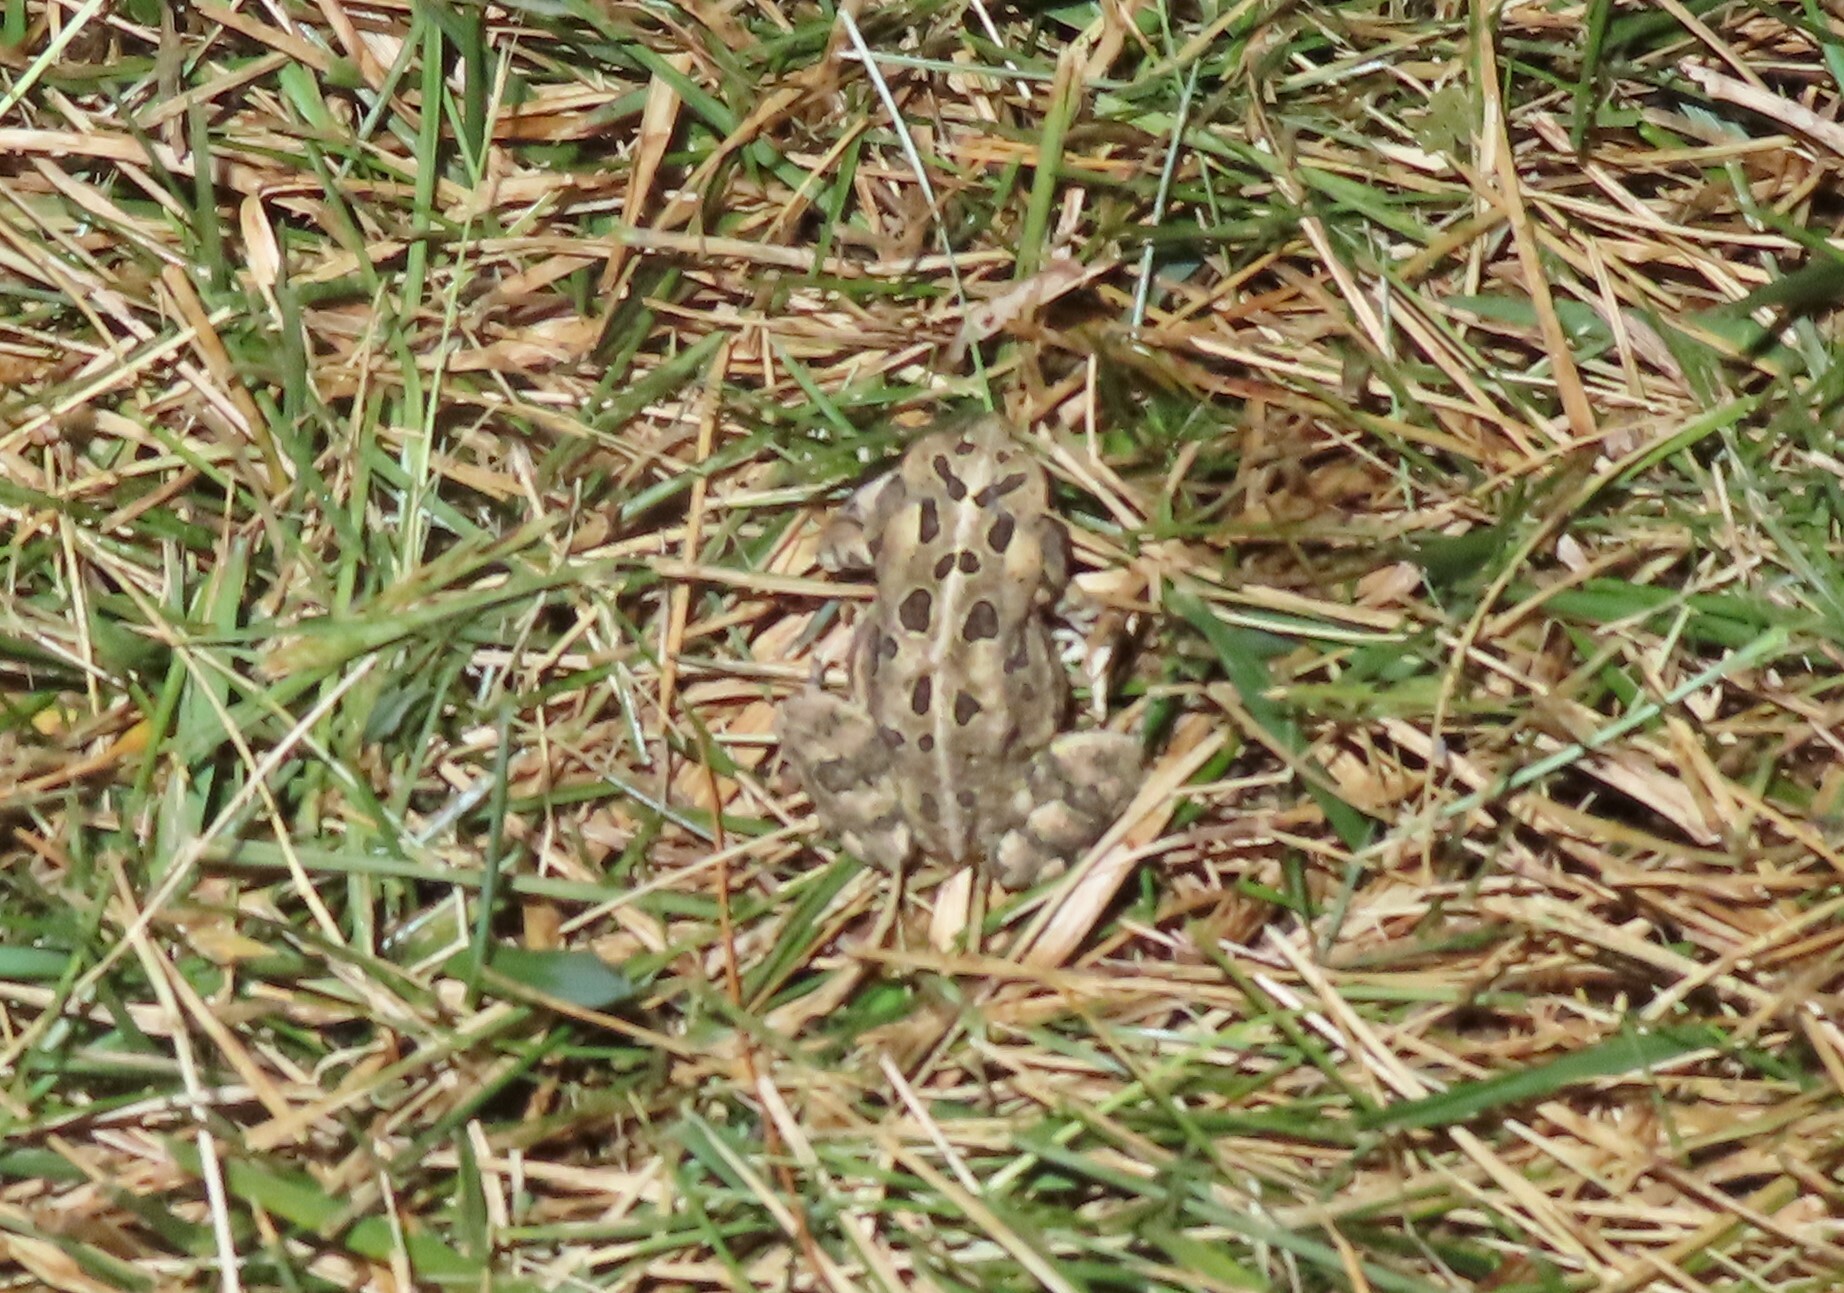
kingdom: Animalia
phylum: Chordata
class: Amphibia
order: Anura
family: Bufonidae
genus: Anaxyrus
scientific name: Anaxyrus fowleri
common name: Fowler's toad
